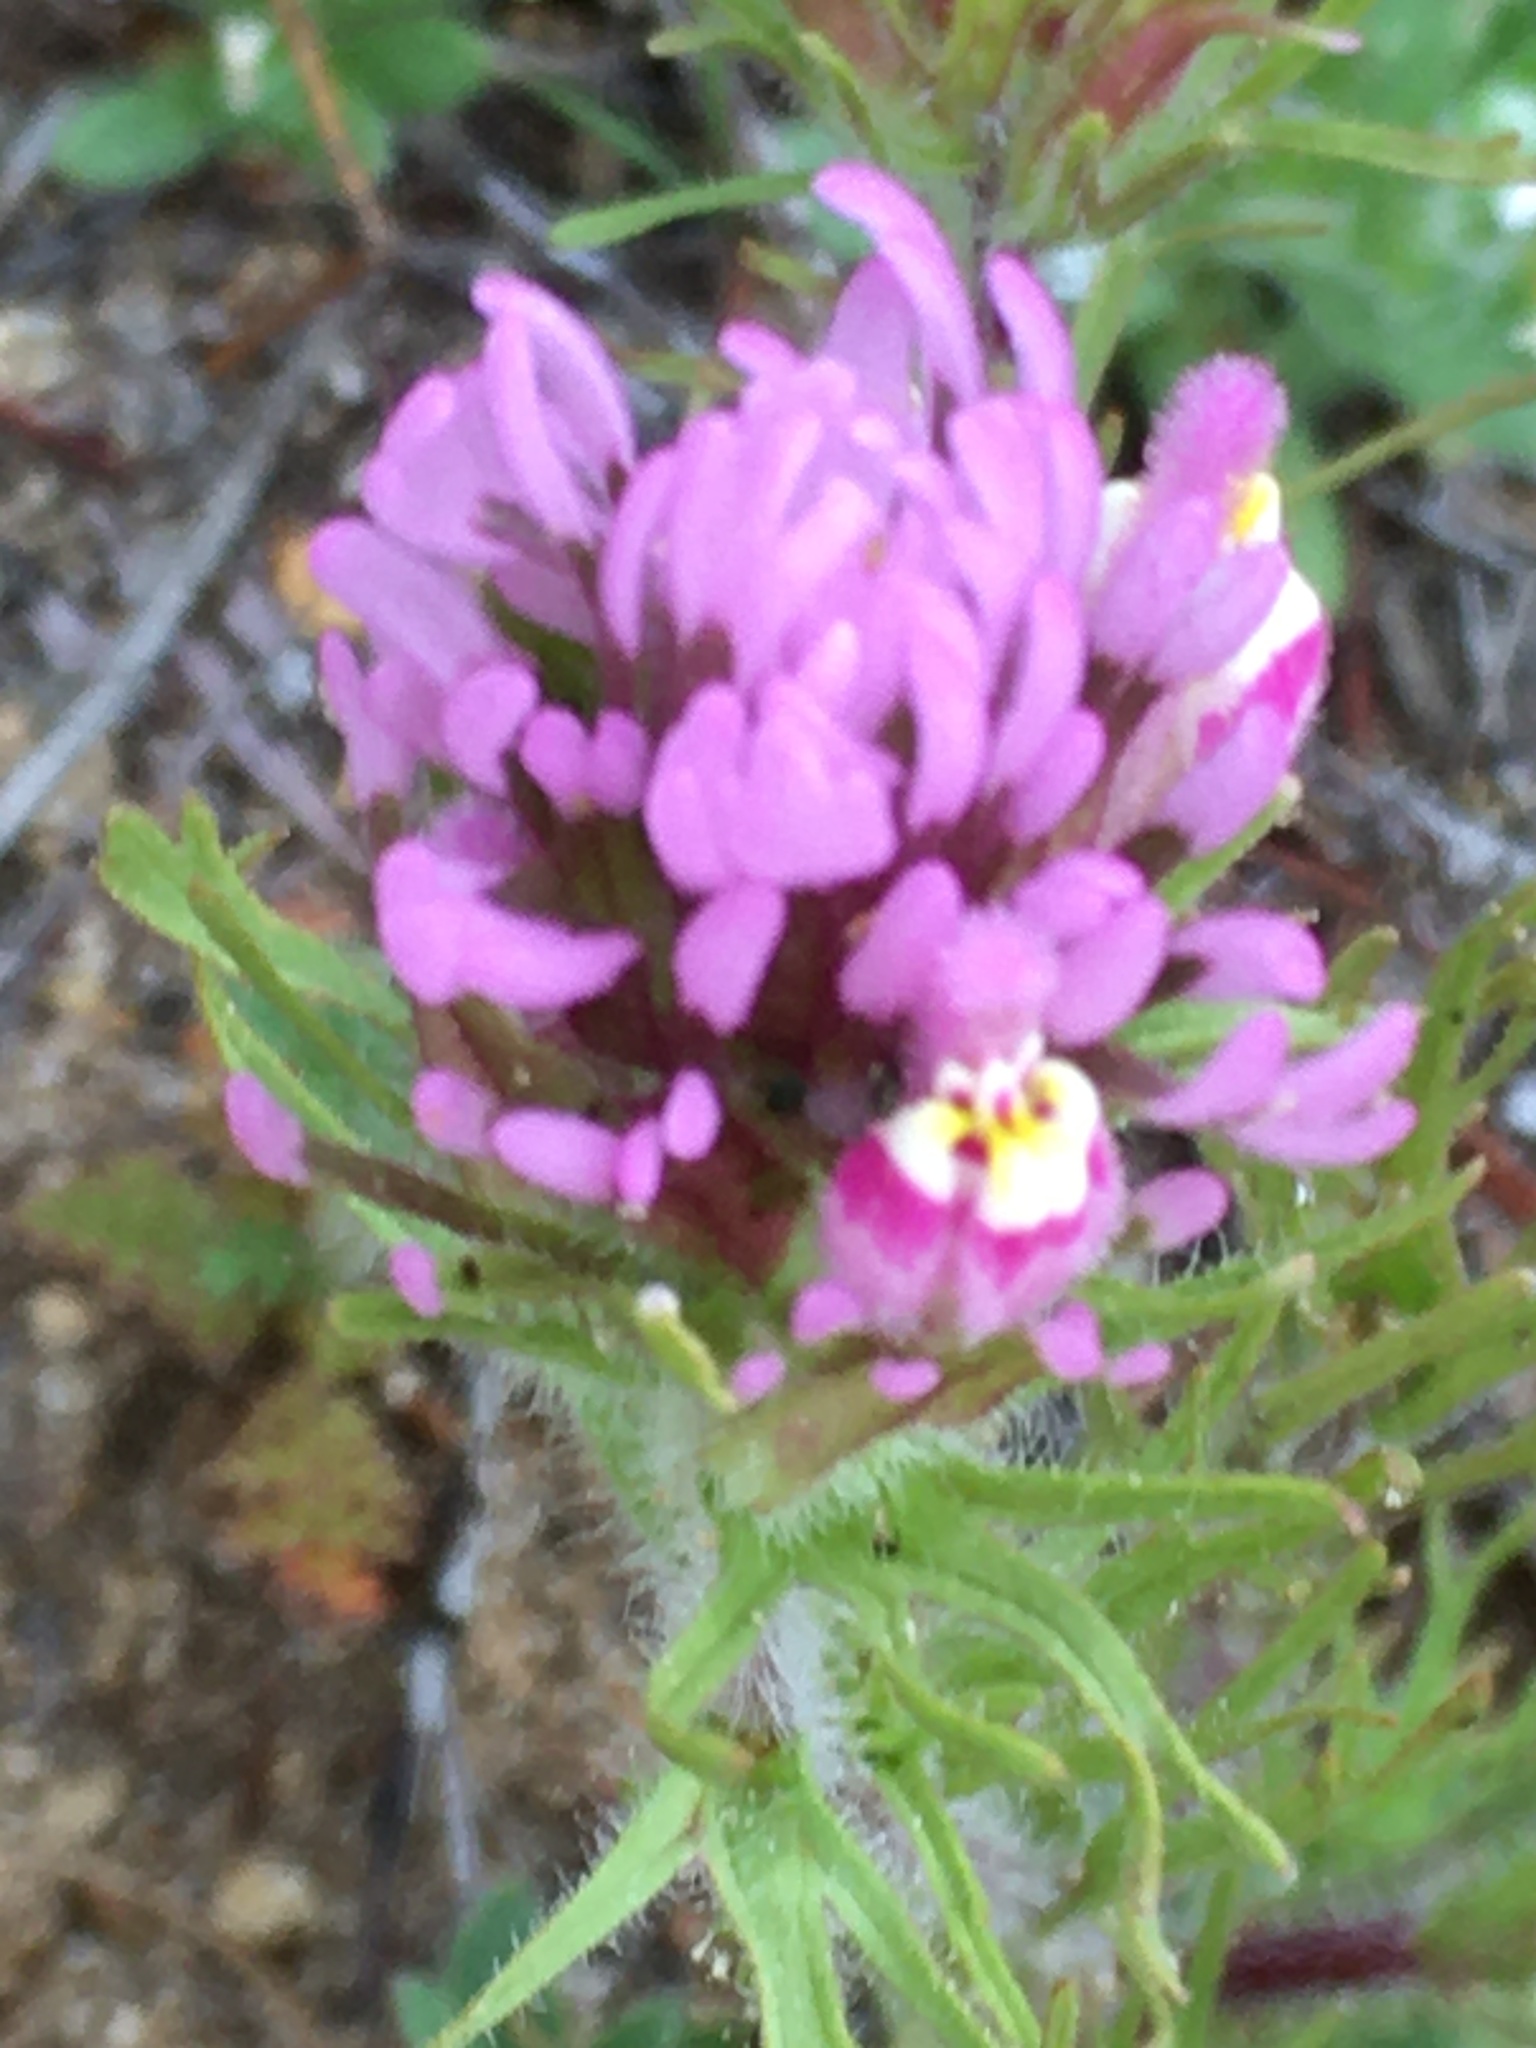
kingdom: Plantae
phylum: Tracheophyta
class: Magnoliopsida
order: Lamiales
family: Orobanchaceae
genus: Castilleja
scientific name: Castilleja exserta
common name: Purple owl-clover
